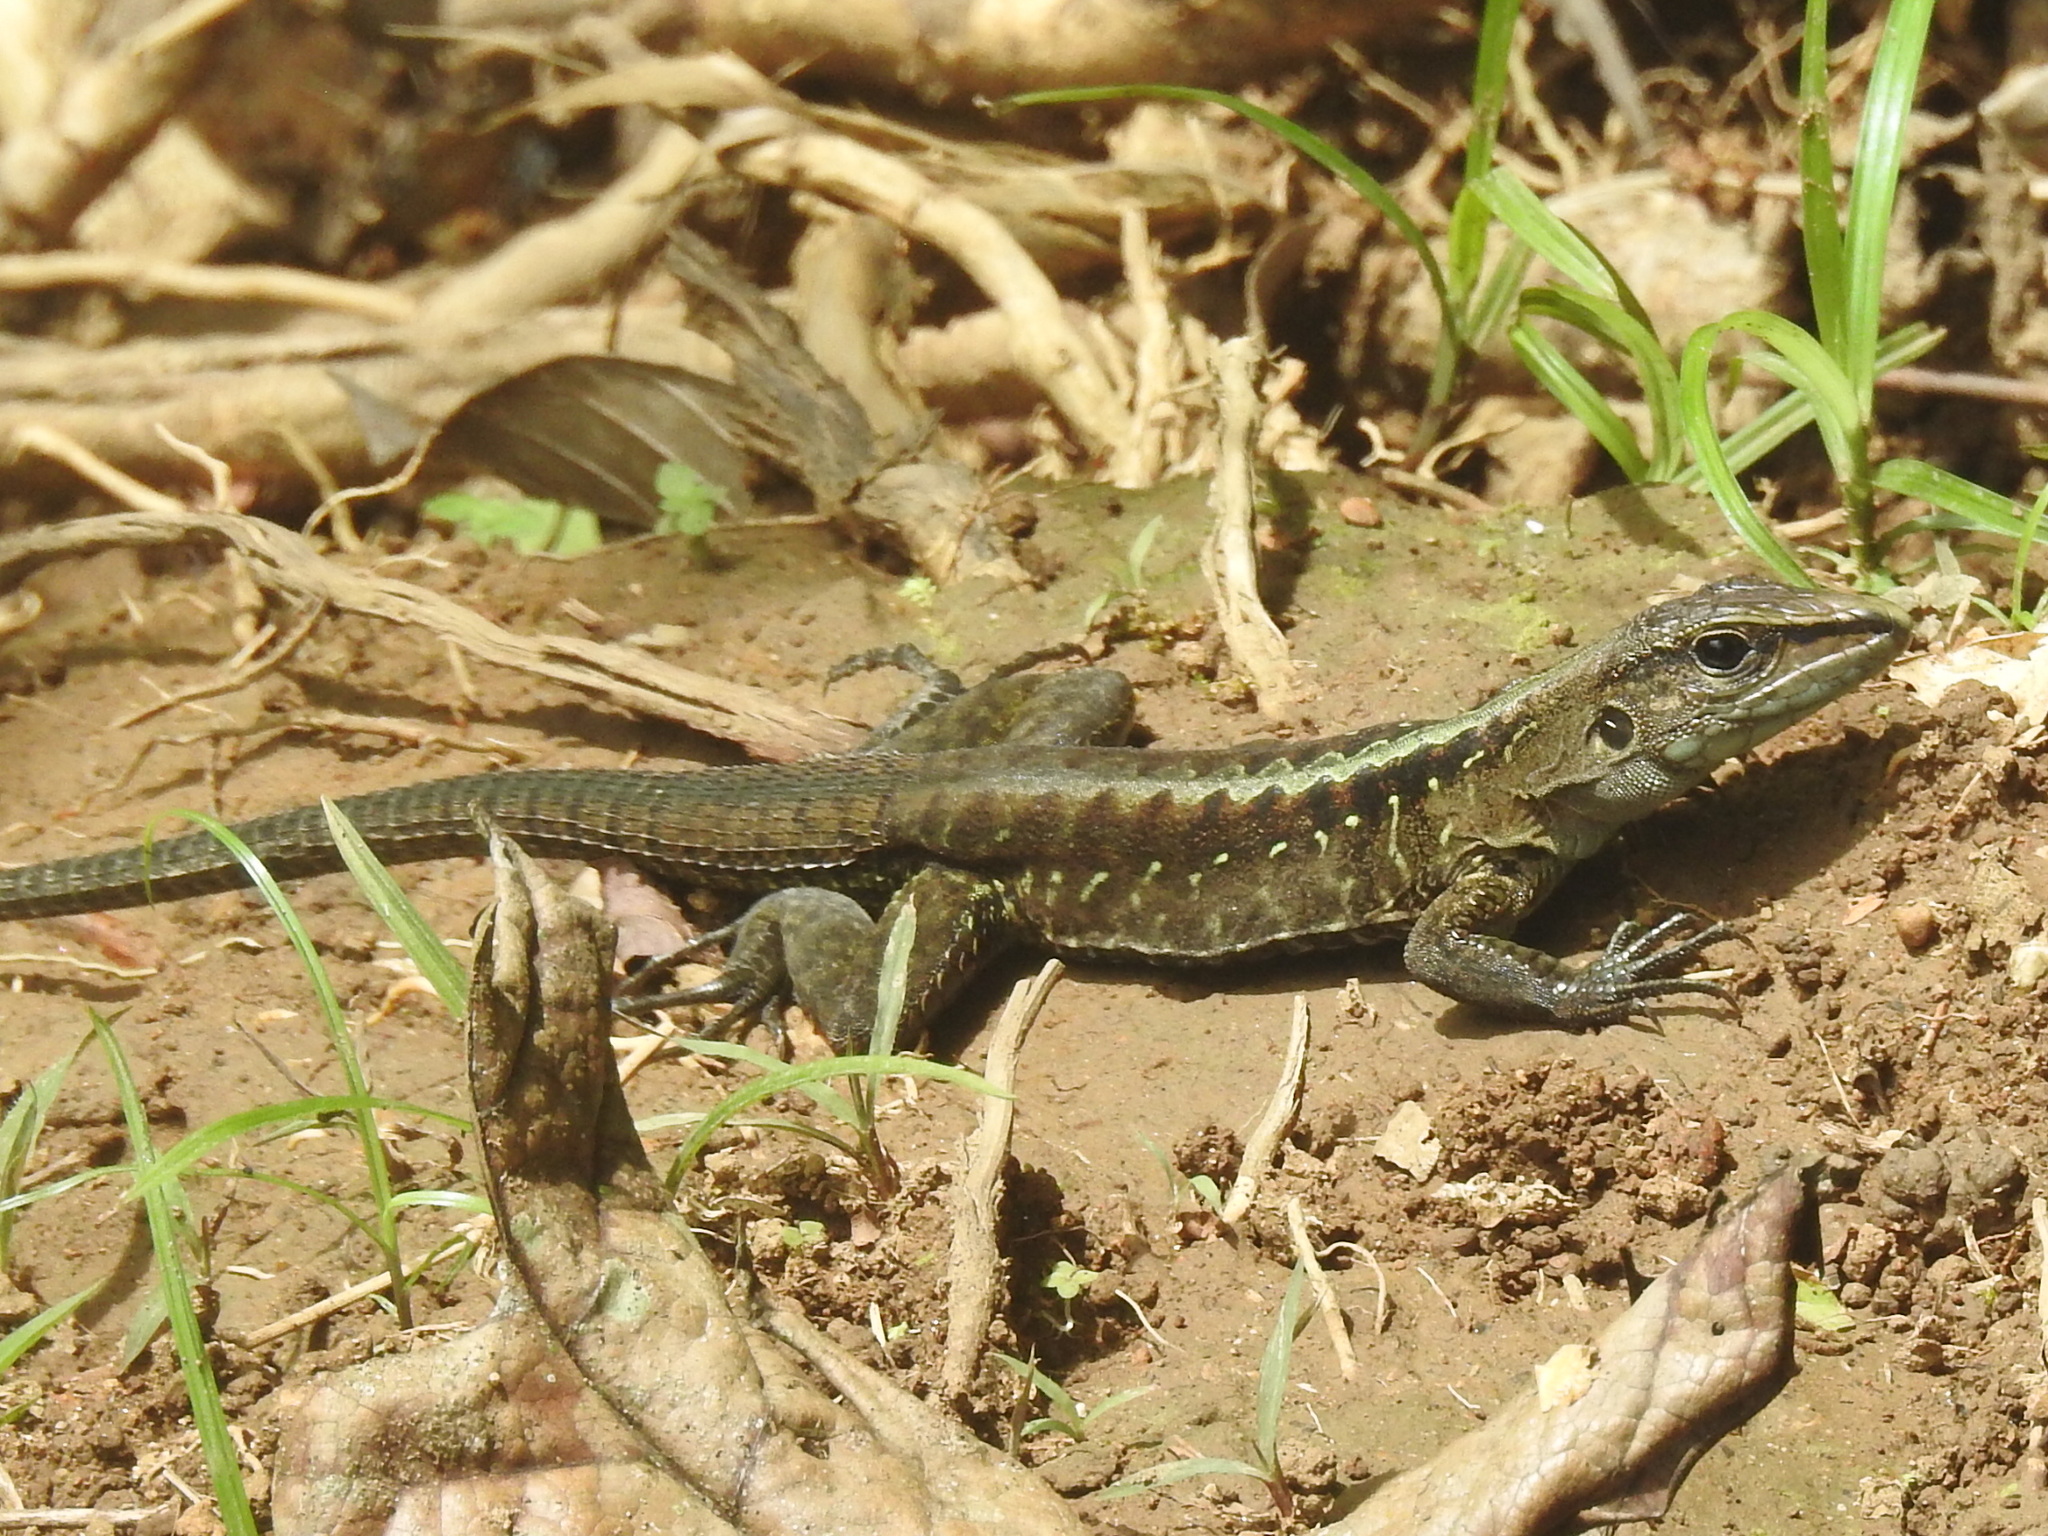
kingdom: Animalia
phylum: Chordata
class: Squamata
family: Teiidae
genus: Holcosus
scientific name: Holcosus festivus
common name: Middle american ameiva
